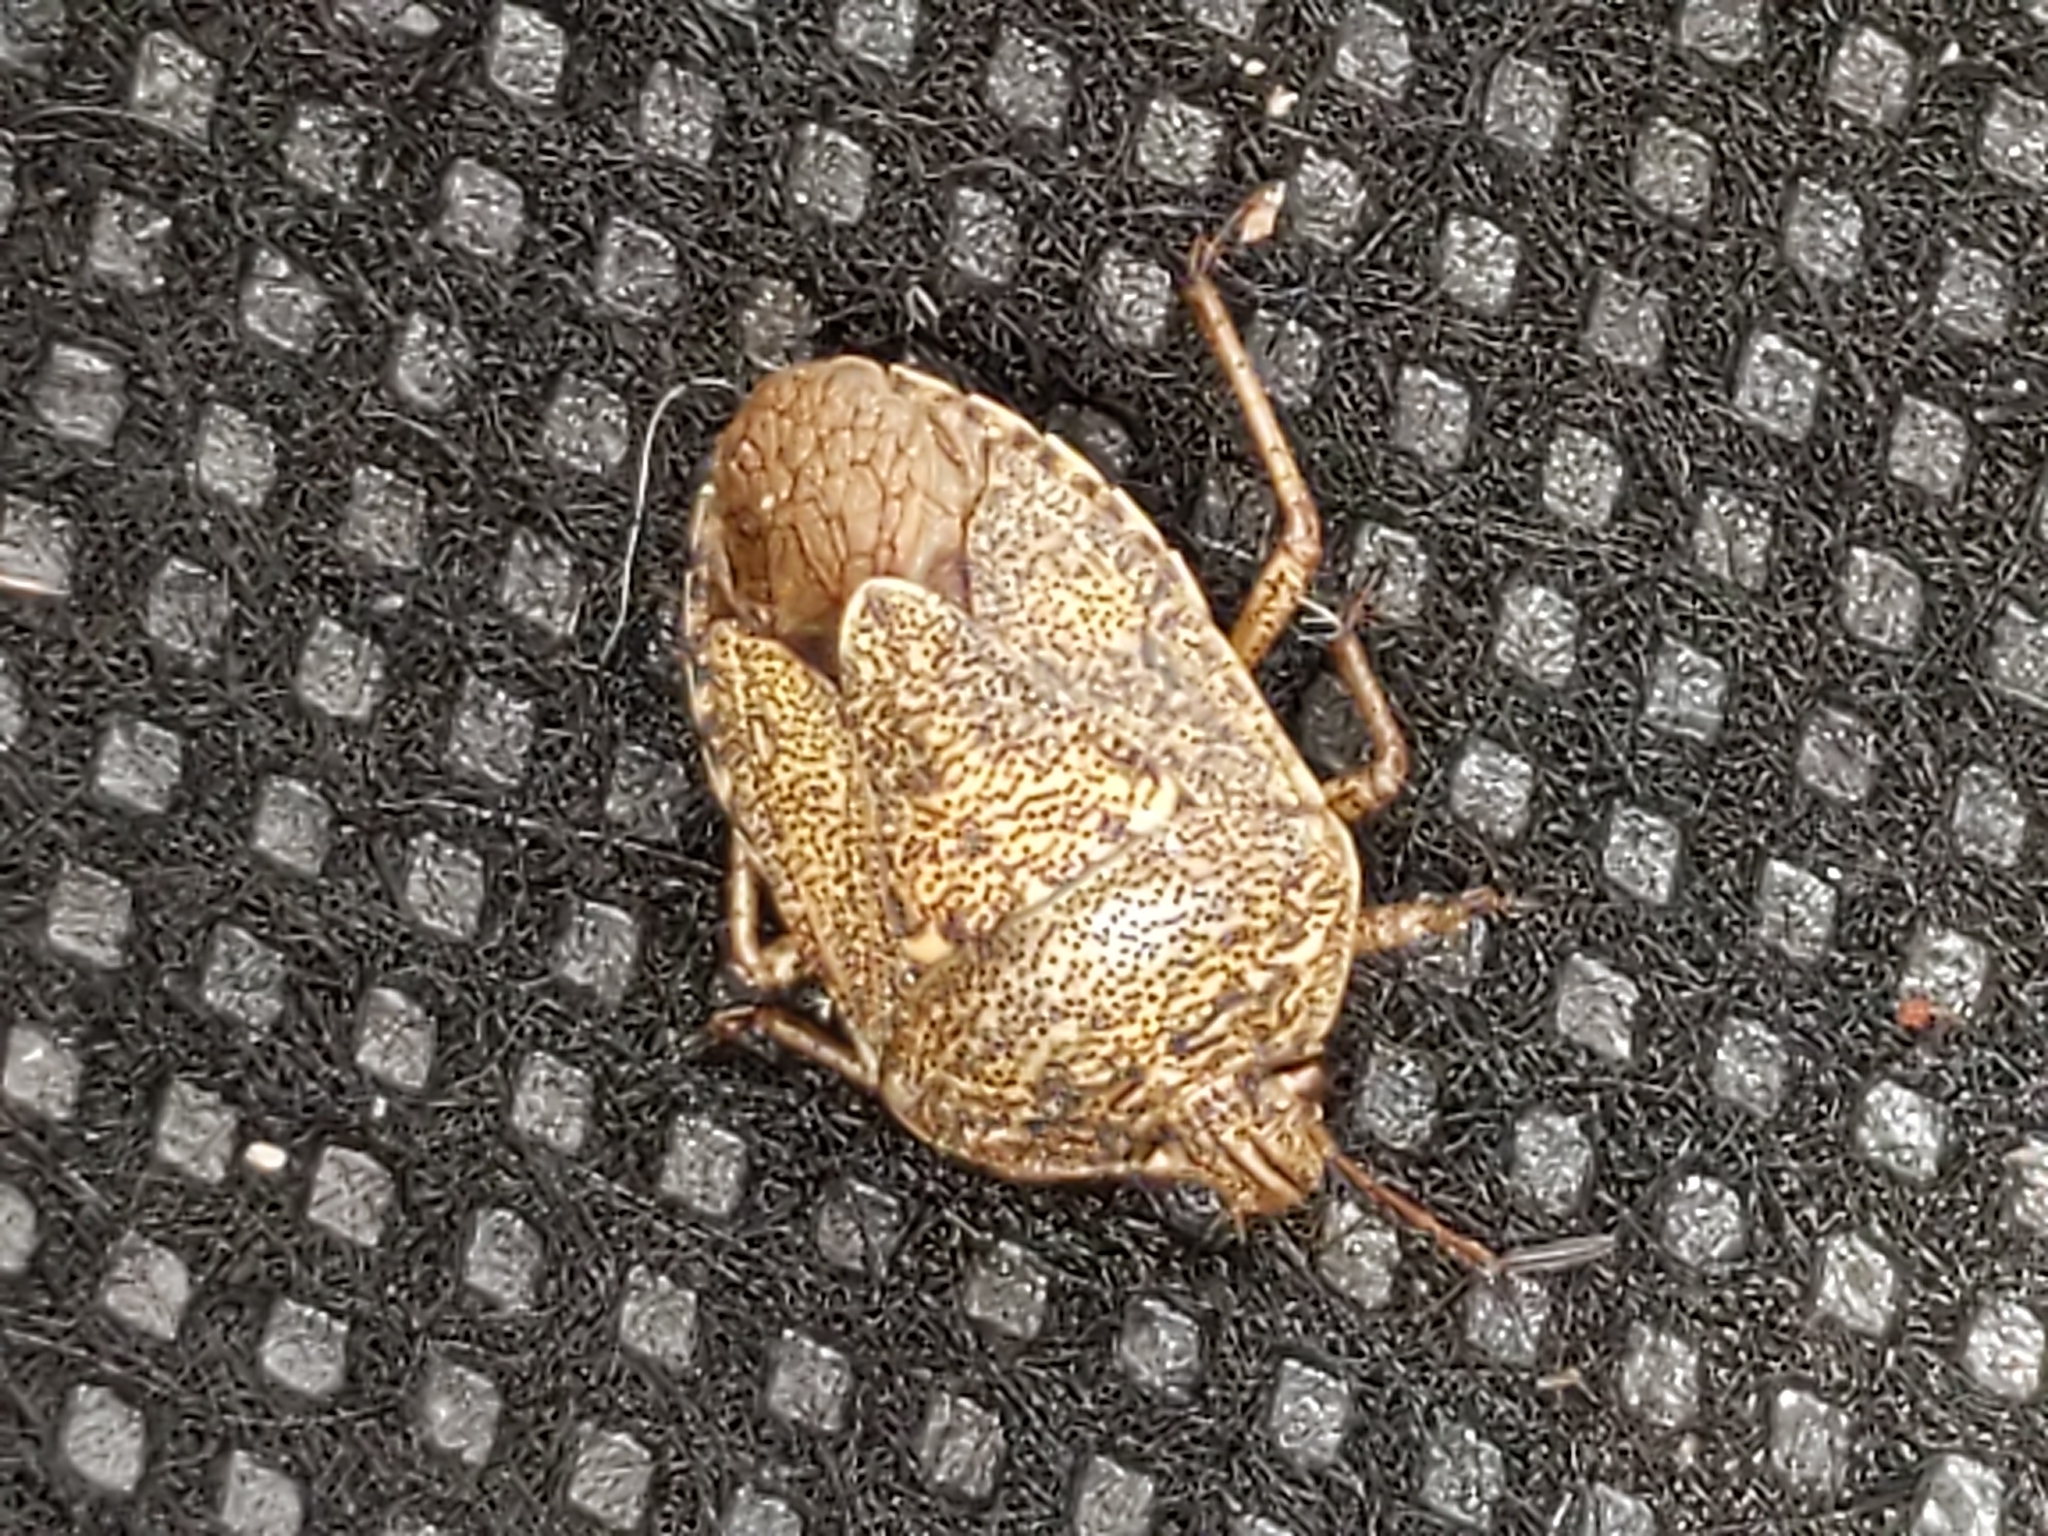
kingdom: Animalia
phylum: Arthropoda
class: Insecta
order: Hemiptera
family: Pentatomidae
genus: Hymenarcys
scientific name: Hymenarcys nervosa
